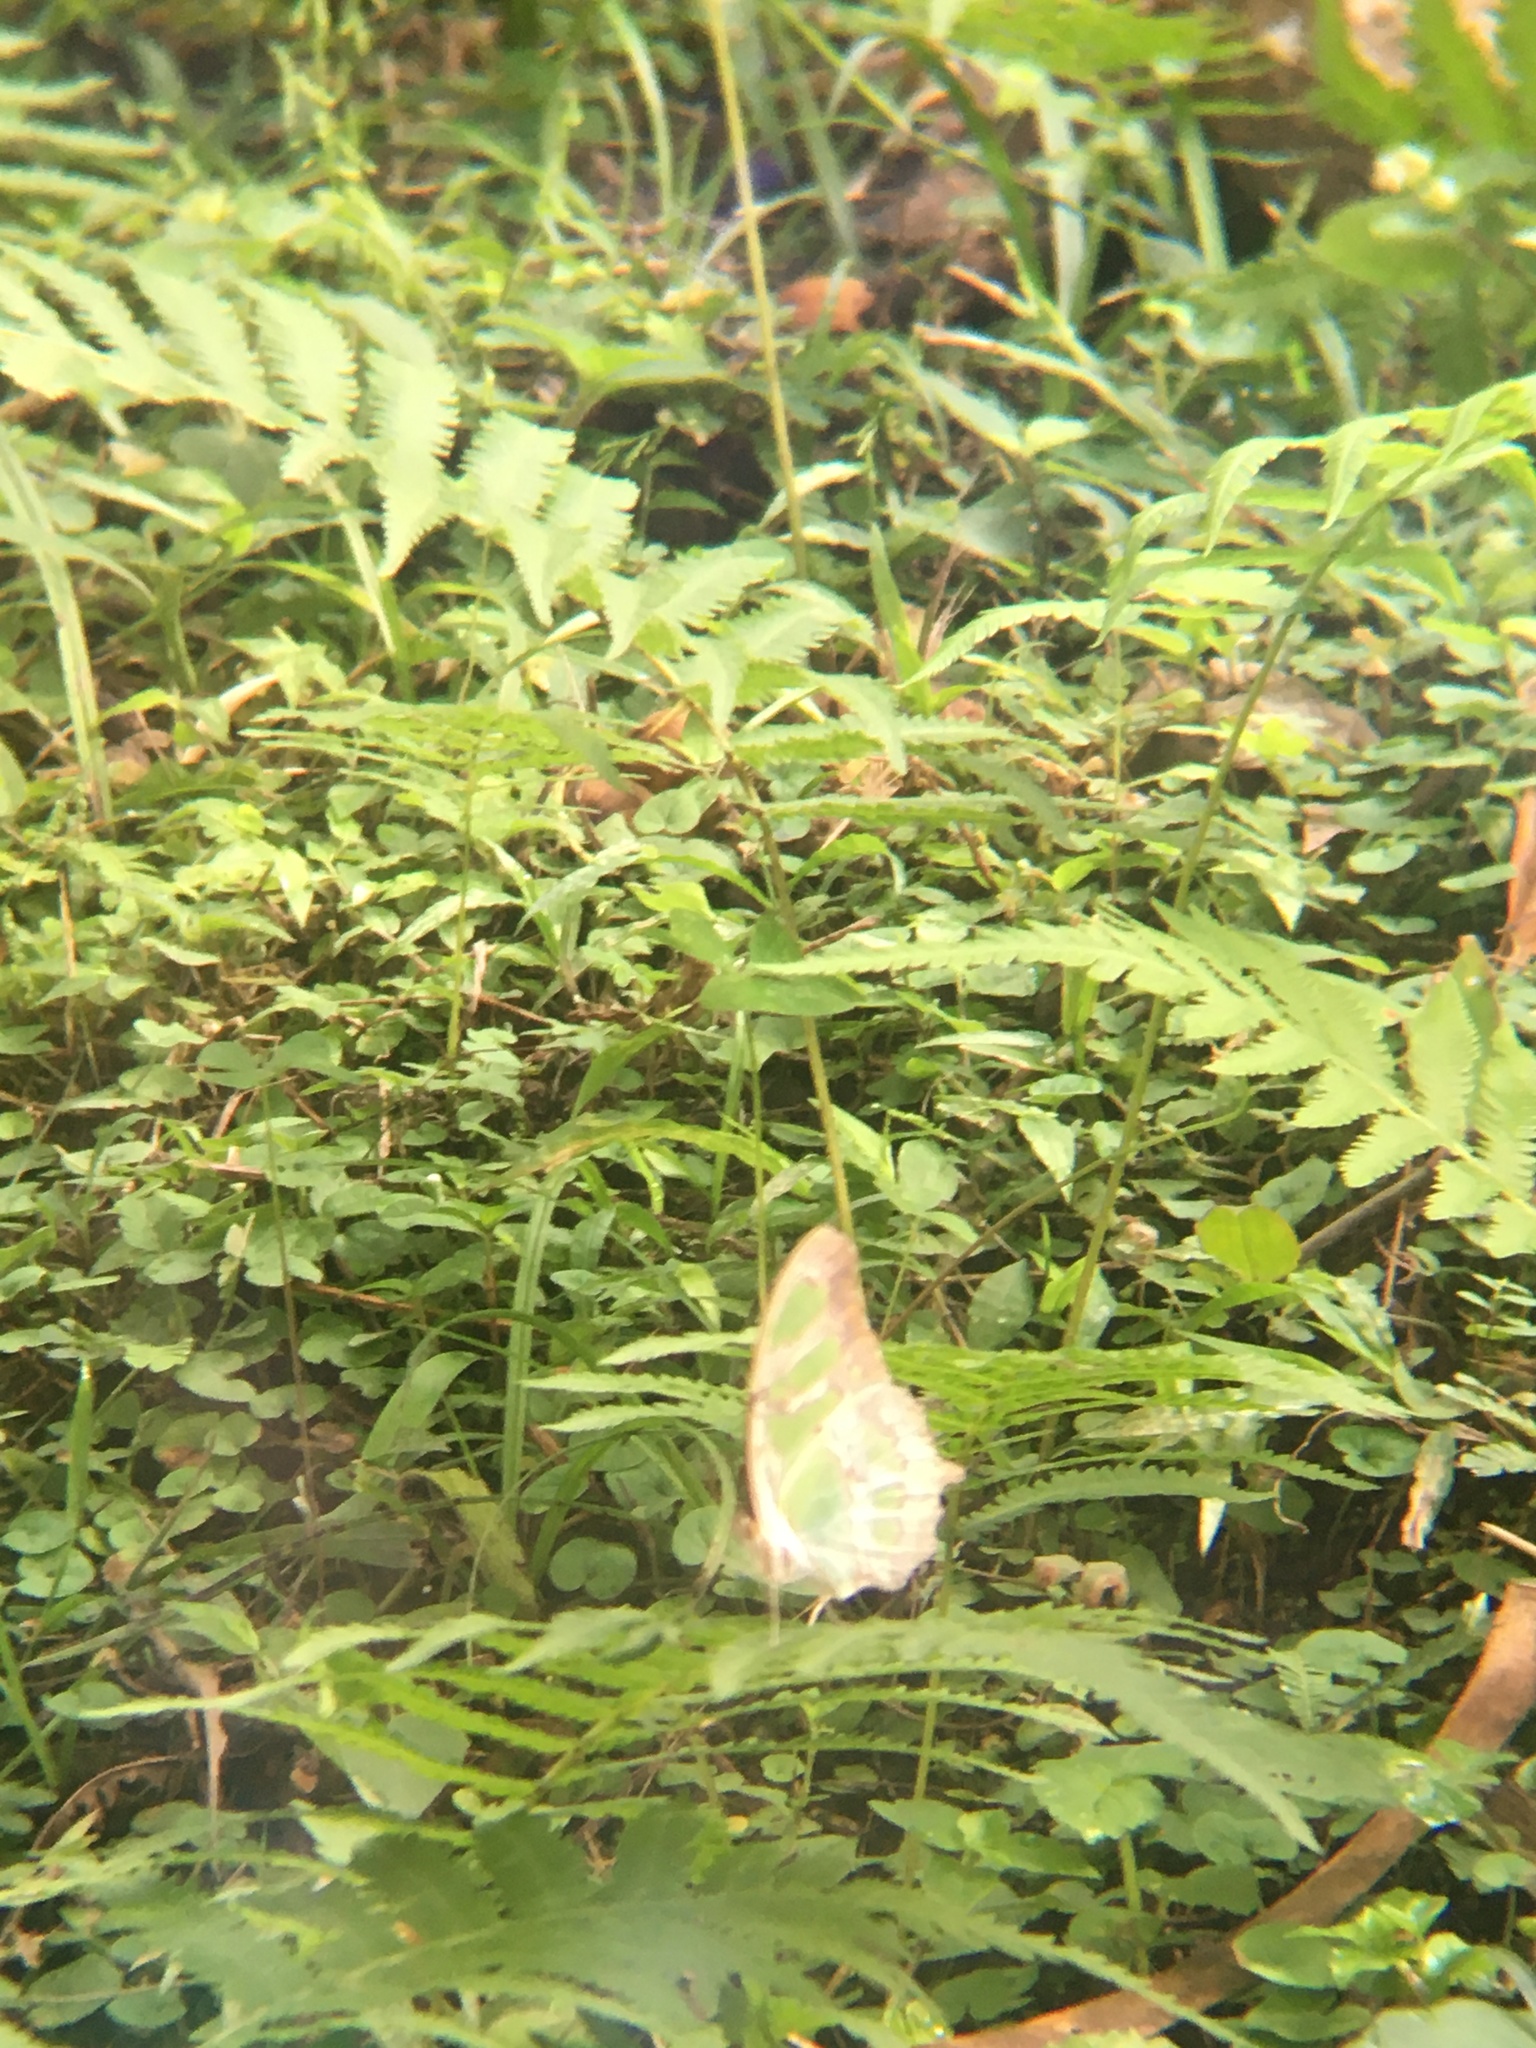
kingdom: Animalia
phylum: Arthropoda
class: Insecta
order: Lepidoptera
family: Nymphalidae
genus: Siproeta
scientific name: Siproeta stelenes
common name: Malachite
